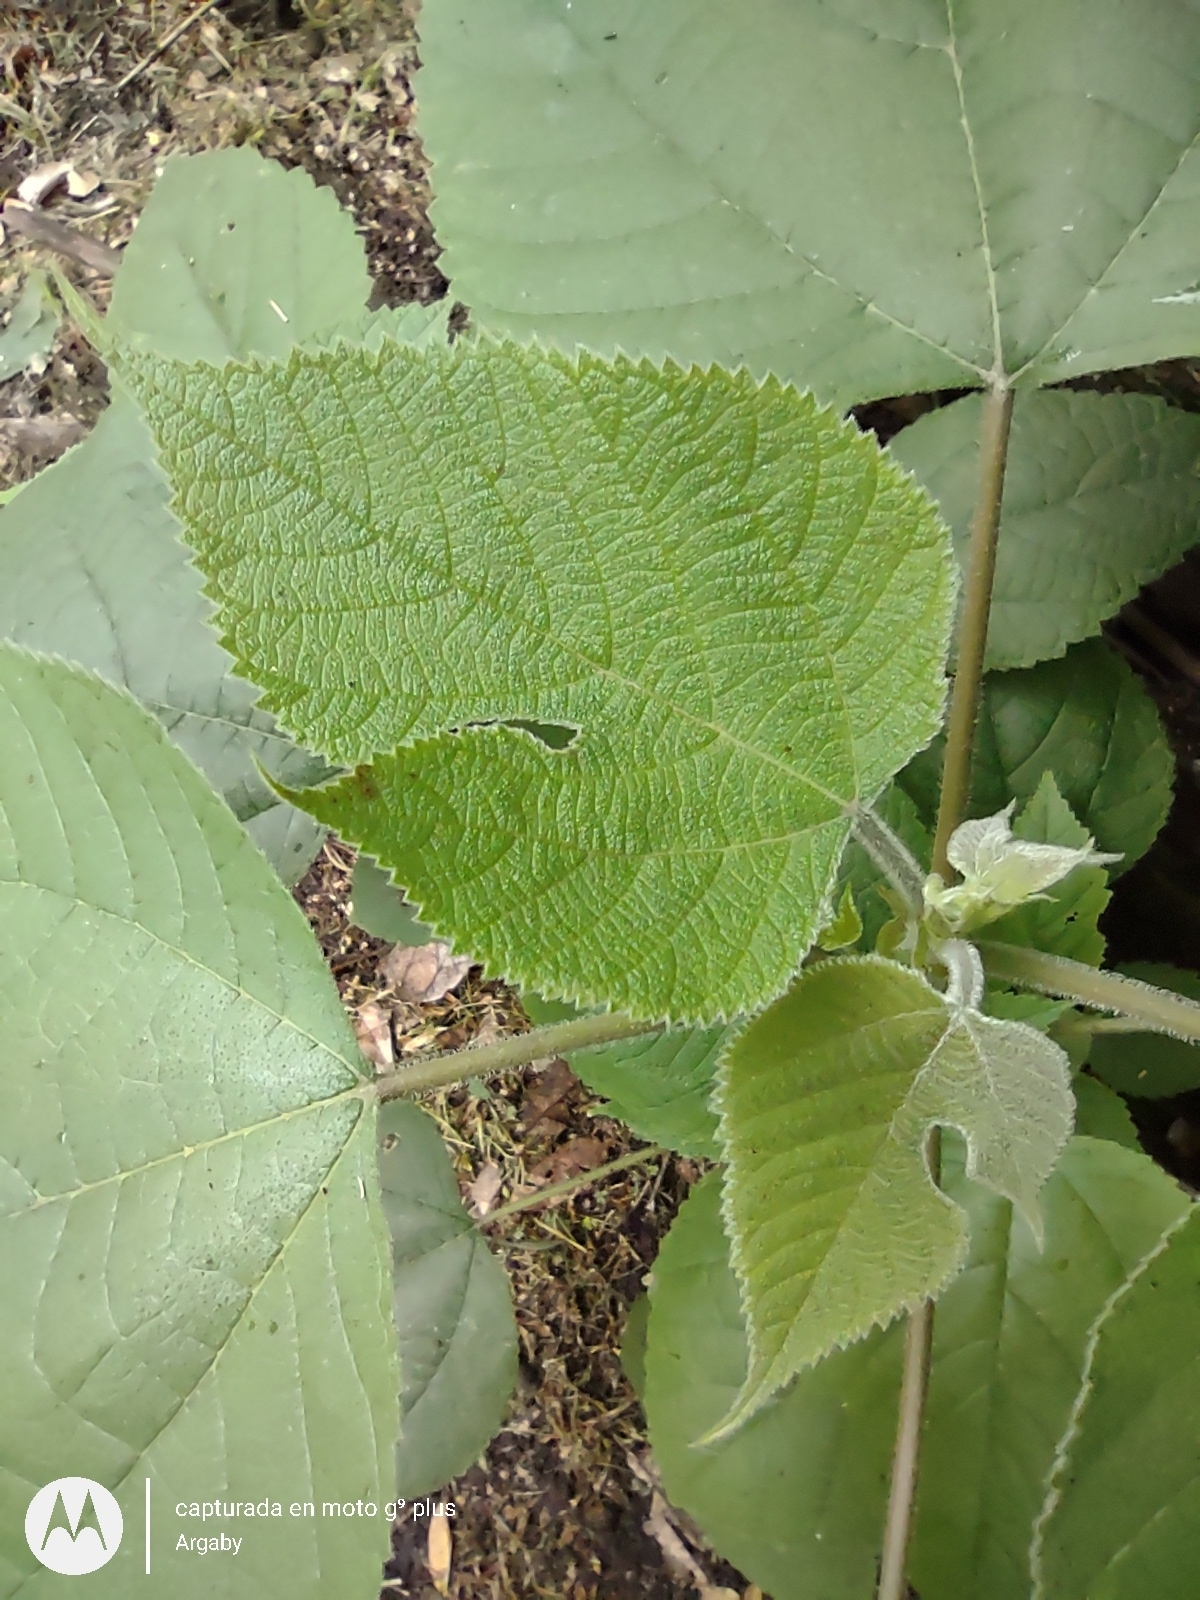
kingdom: Plantae
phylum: Tracheophyta
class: Magnoliopsida
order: Rosales
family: Moraceae
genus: Broussonetia
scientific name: Broussonetia papyrifera
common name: Paper mulberry
